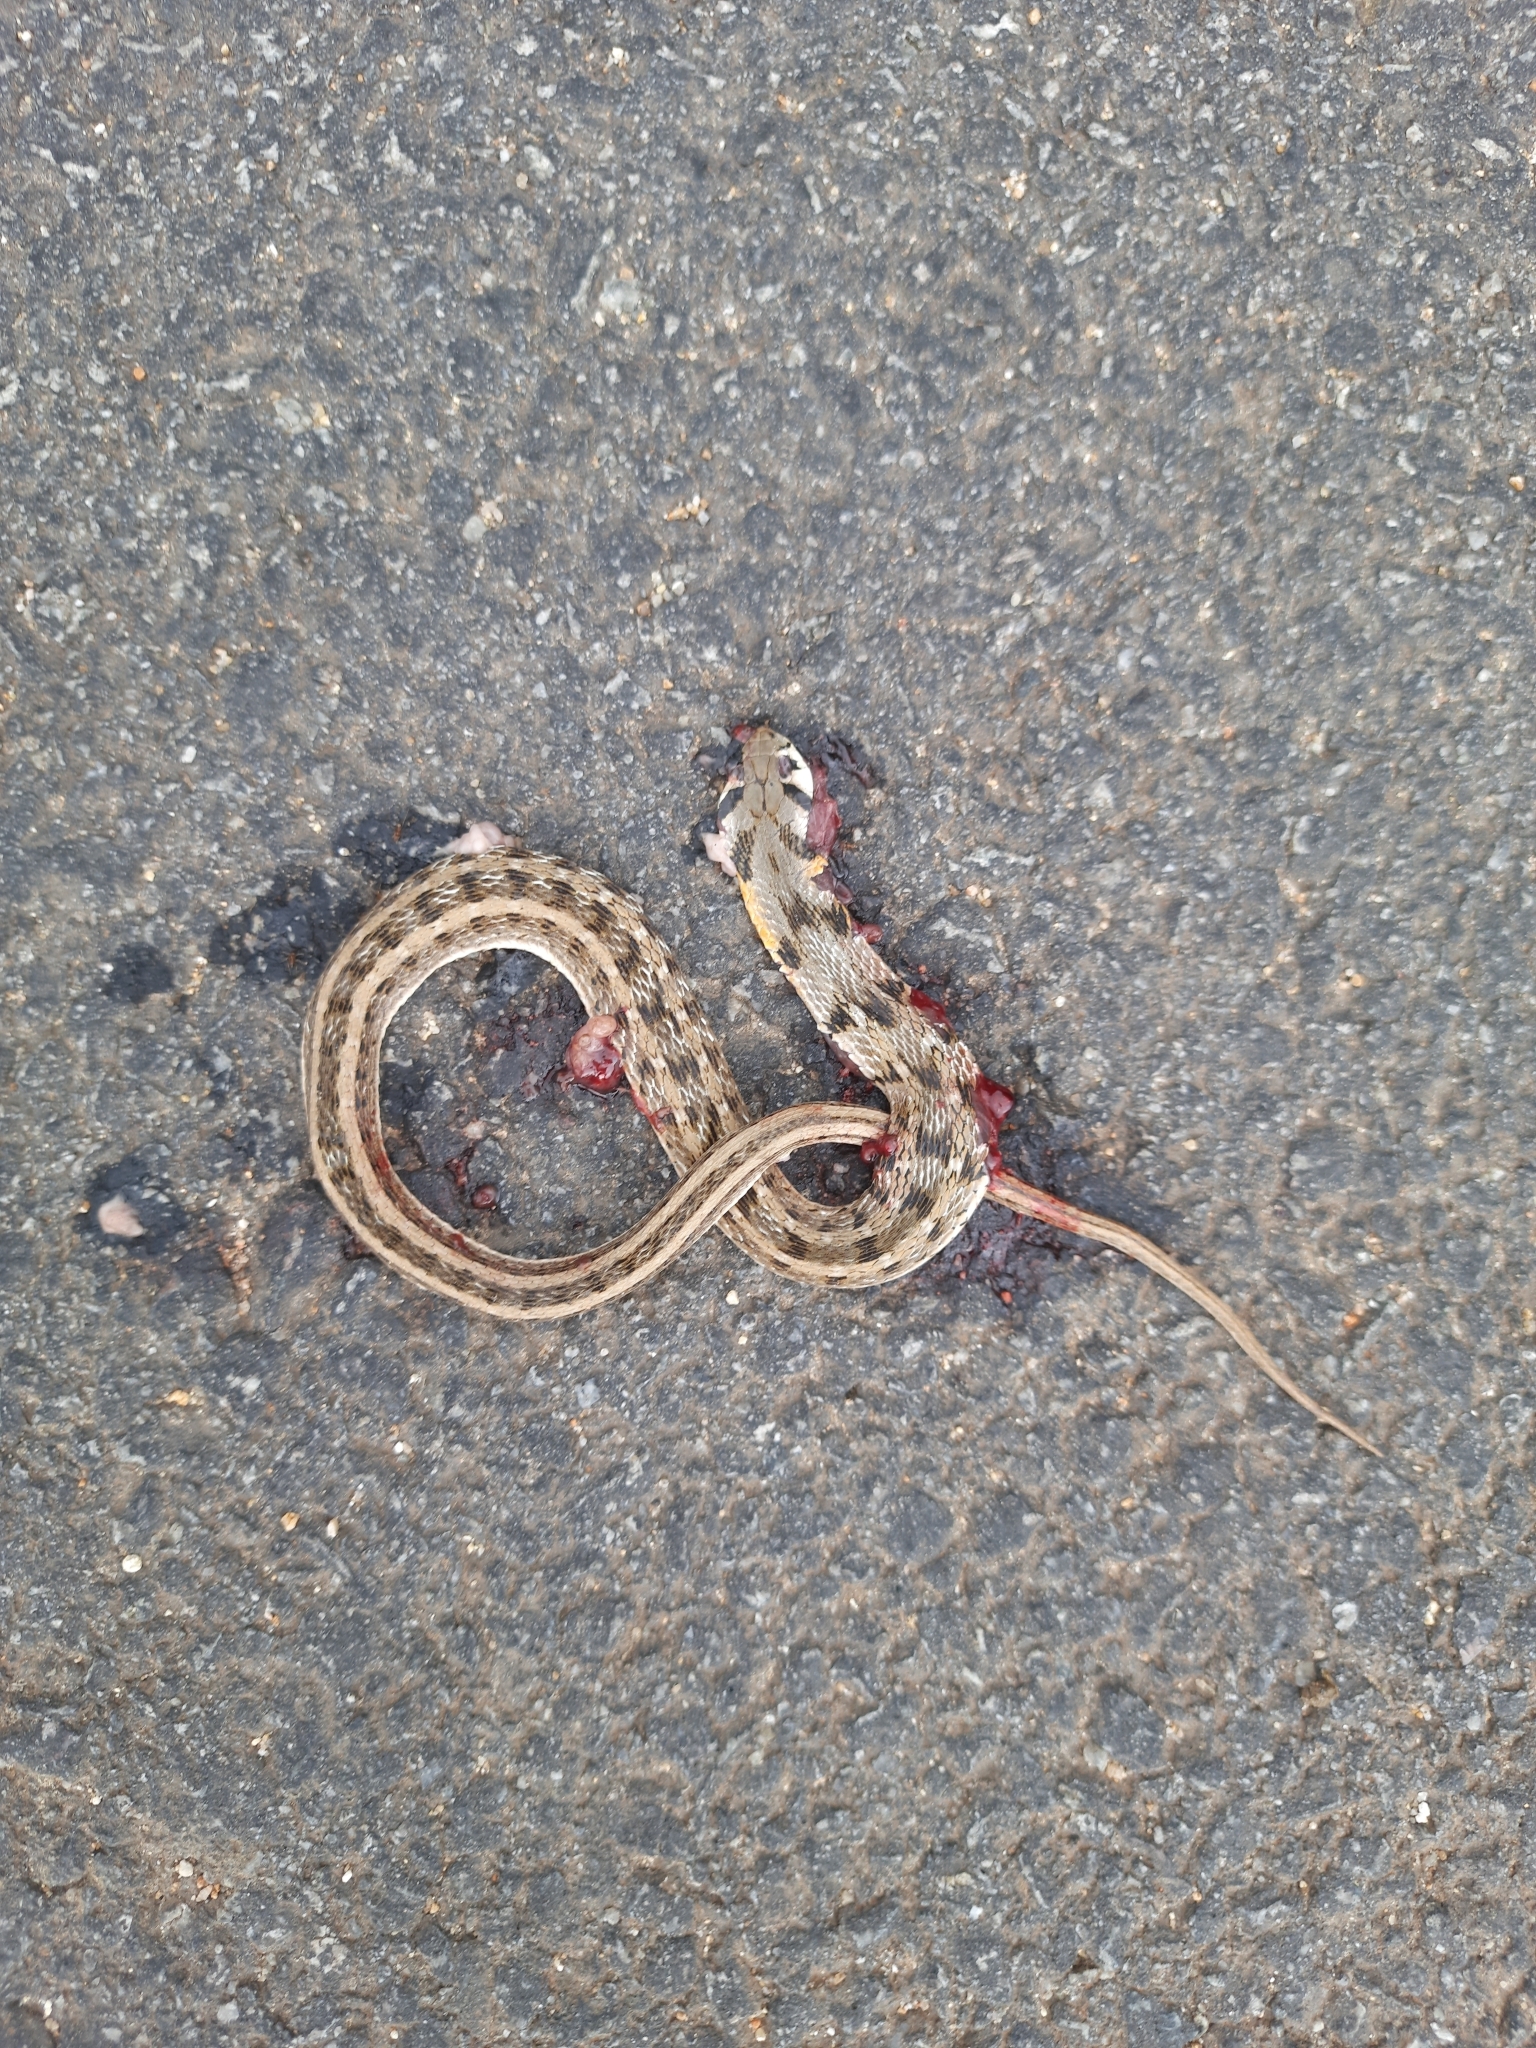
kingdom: Animalia
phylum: Chordata
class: Squamata
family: Colubridae
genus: Amphiesma
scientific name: Amphiesma stolatum
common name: Buff striped keelback
